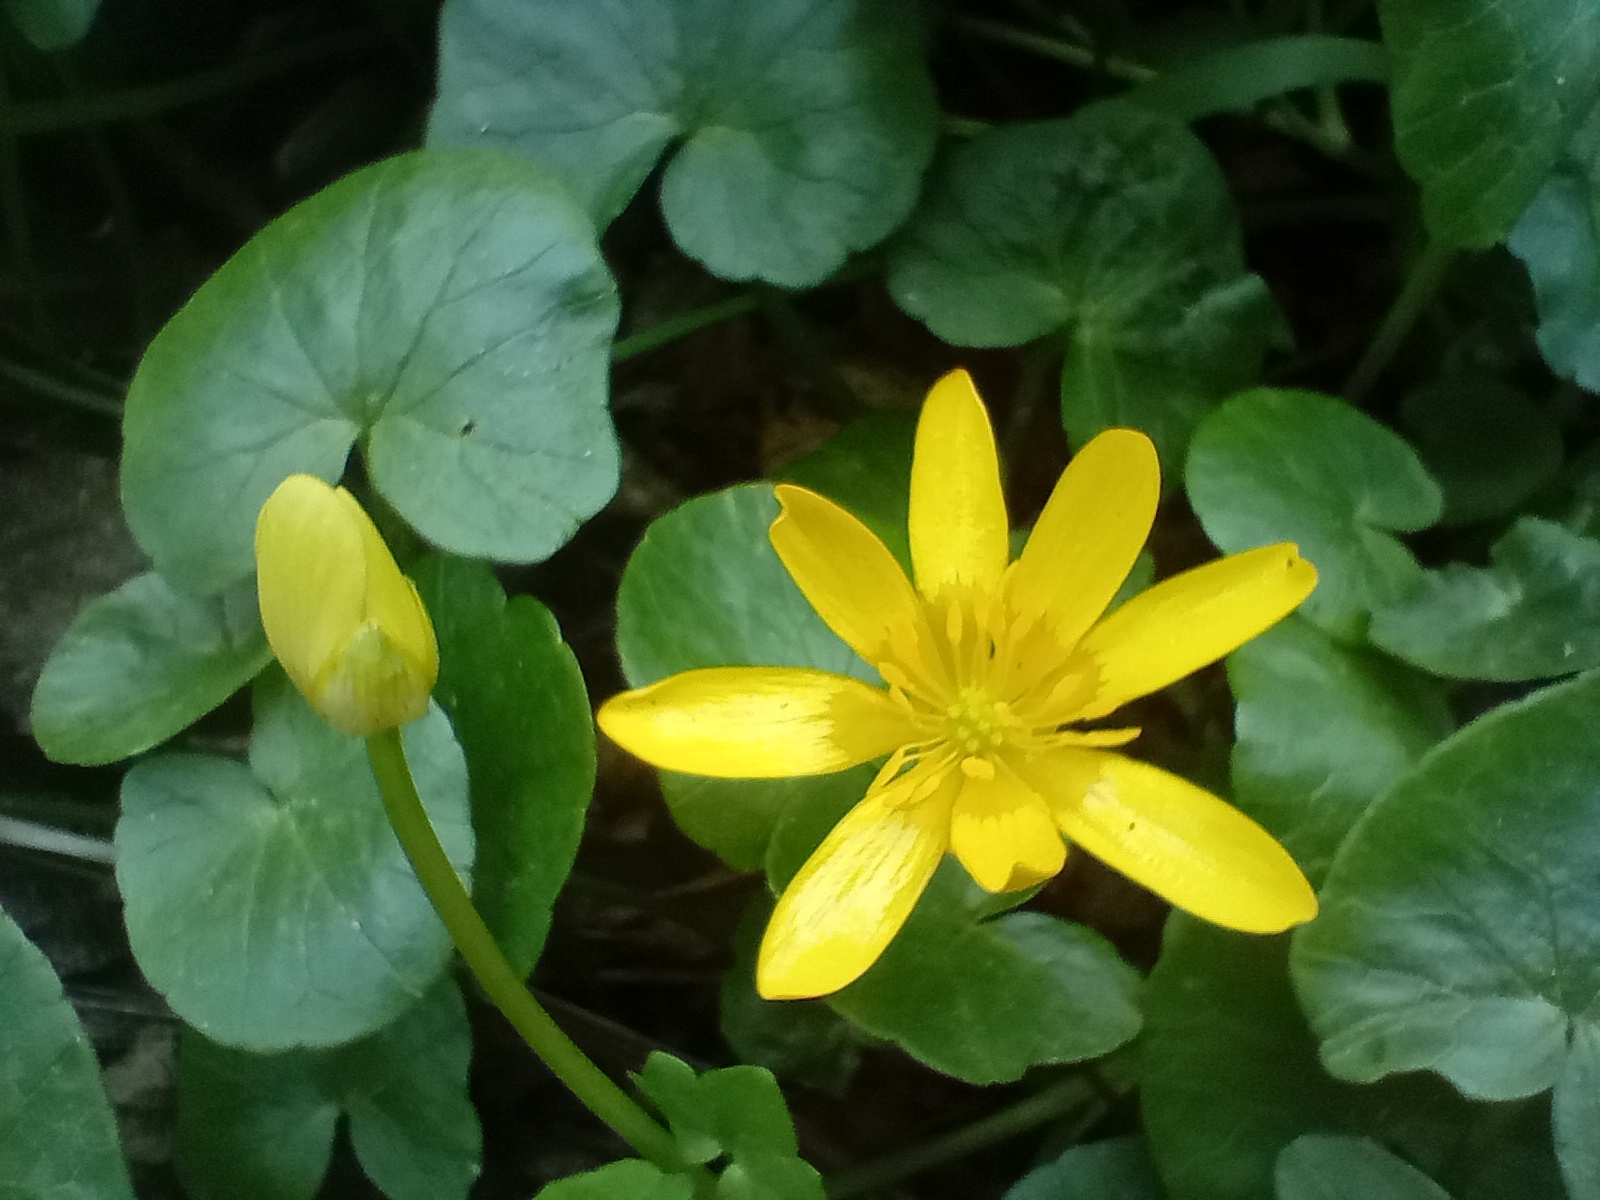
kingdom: Plantae
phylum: Tracheophyta
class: Magnoliopsida
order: Ranunculales
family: Ranunculaceae
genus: Ficaria
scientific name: Ficaria verna
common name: Lesser celandine
